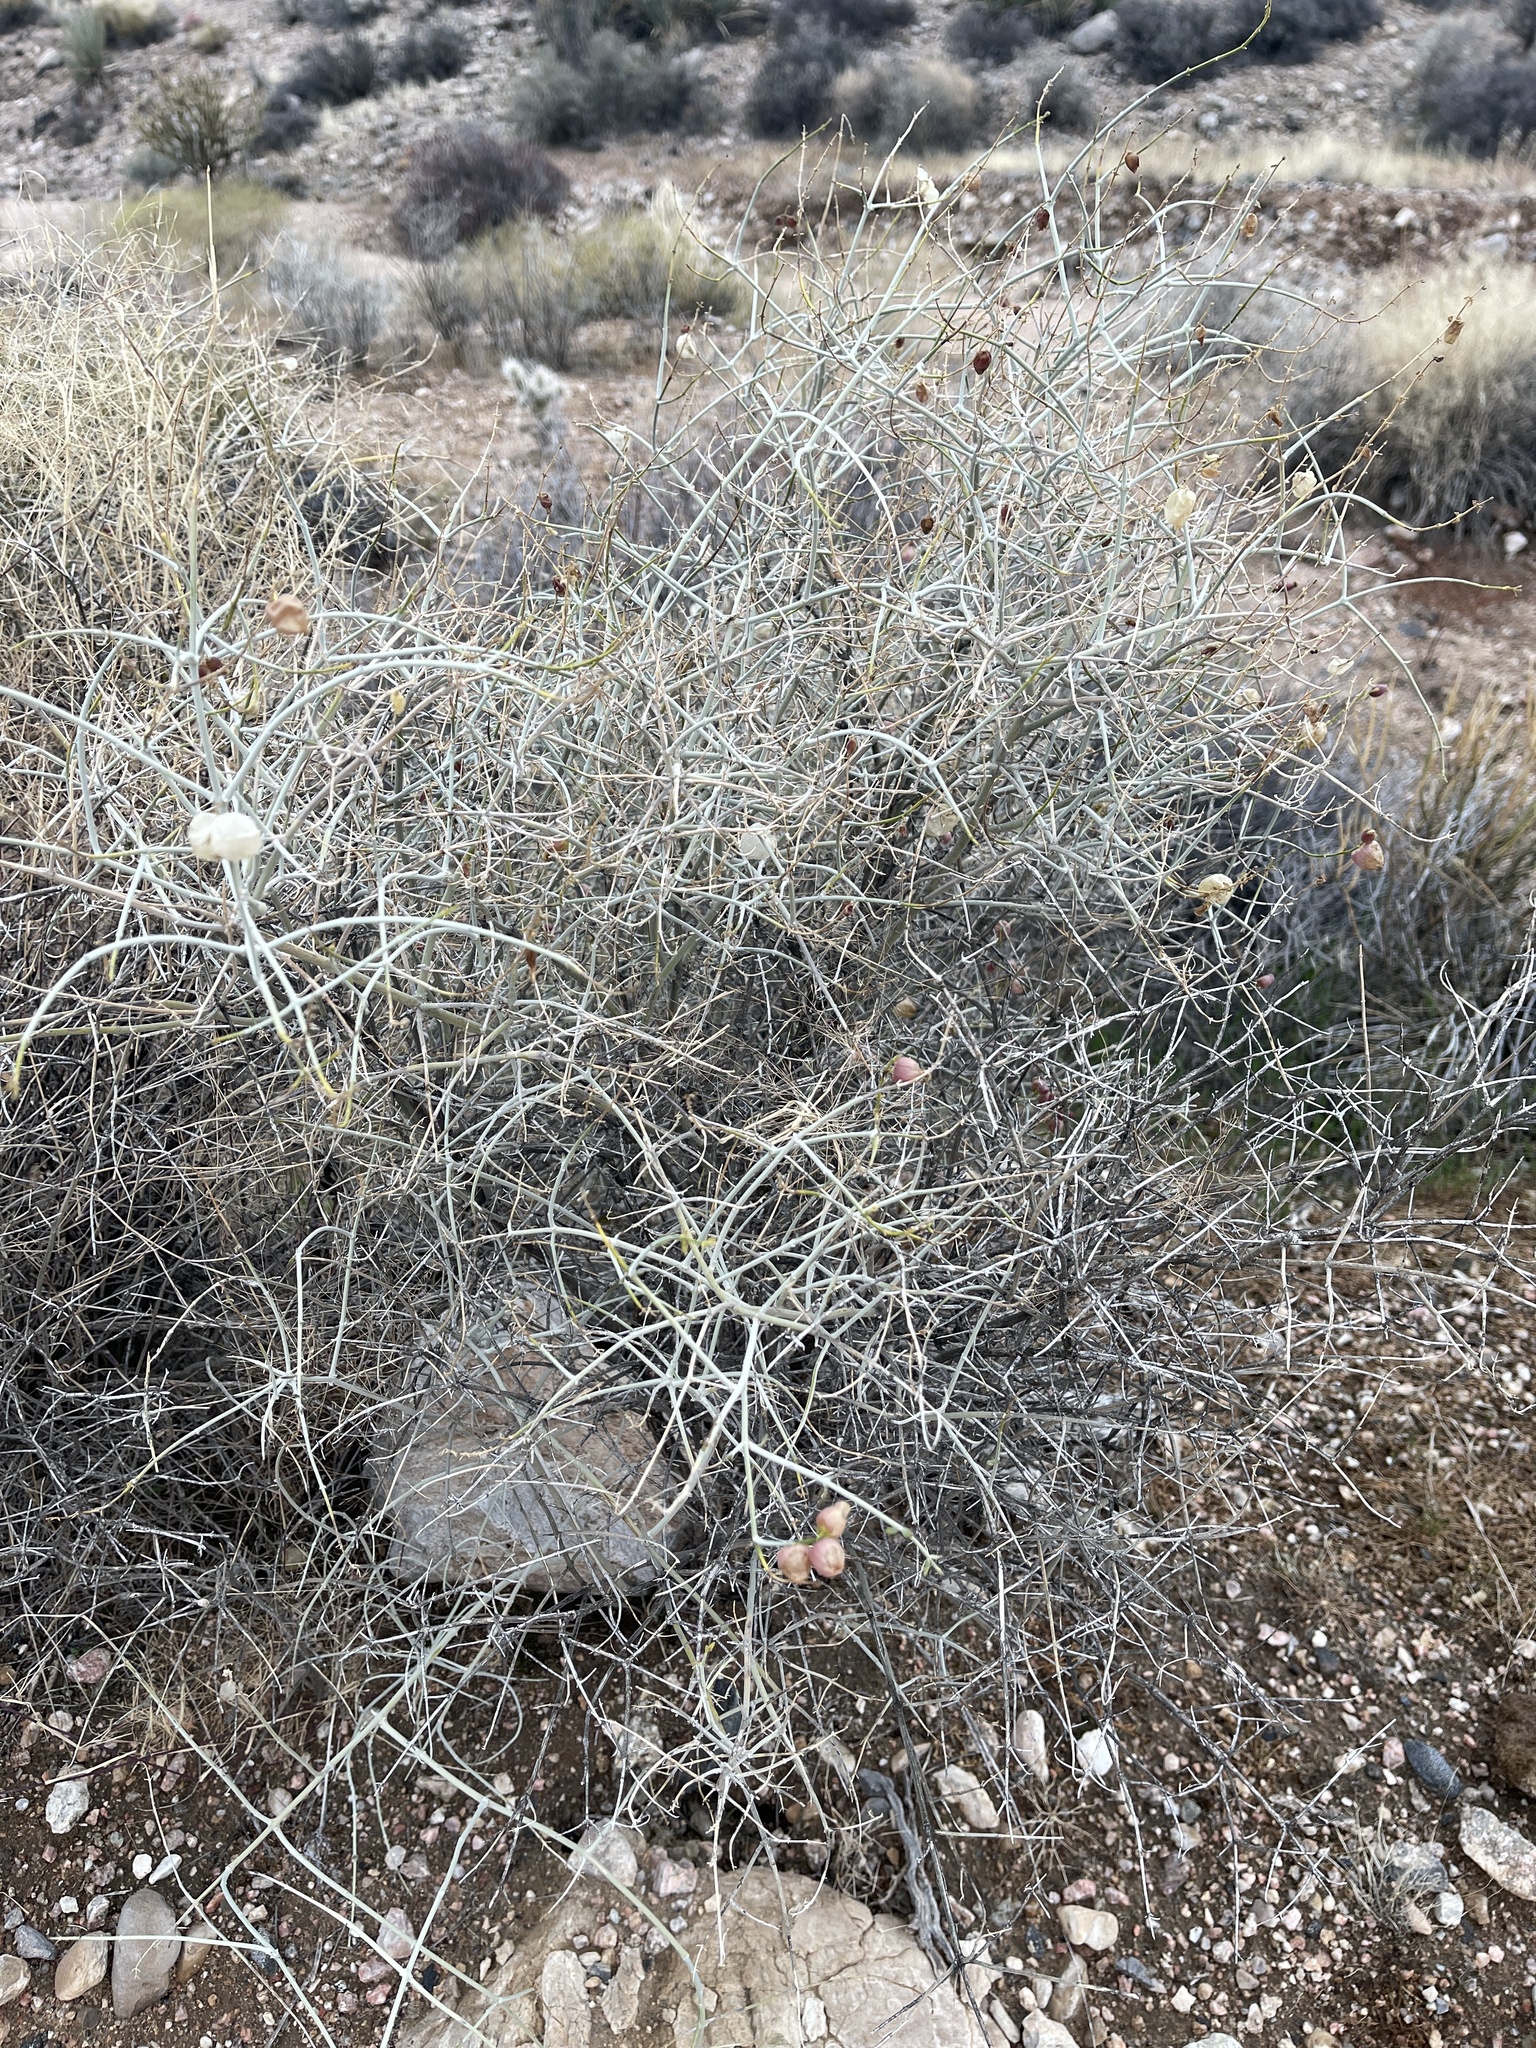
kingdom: Plantae
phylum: Tracheophyta
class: Magnoliopsida
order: Lamiales
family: Lamiaceae
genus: Scutellaria
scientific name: Scutellaria mexicana
